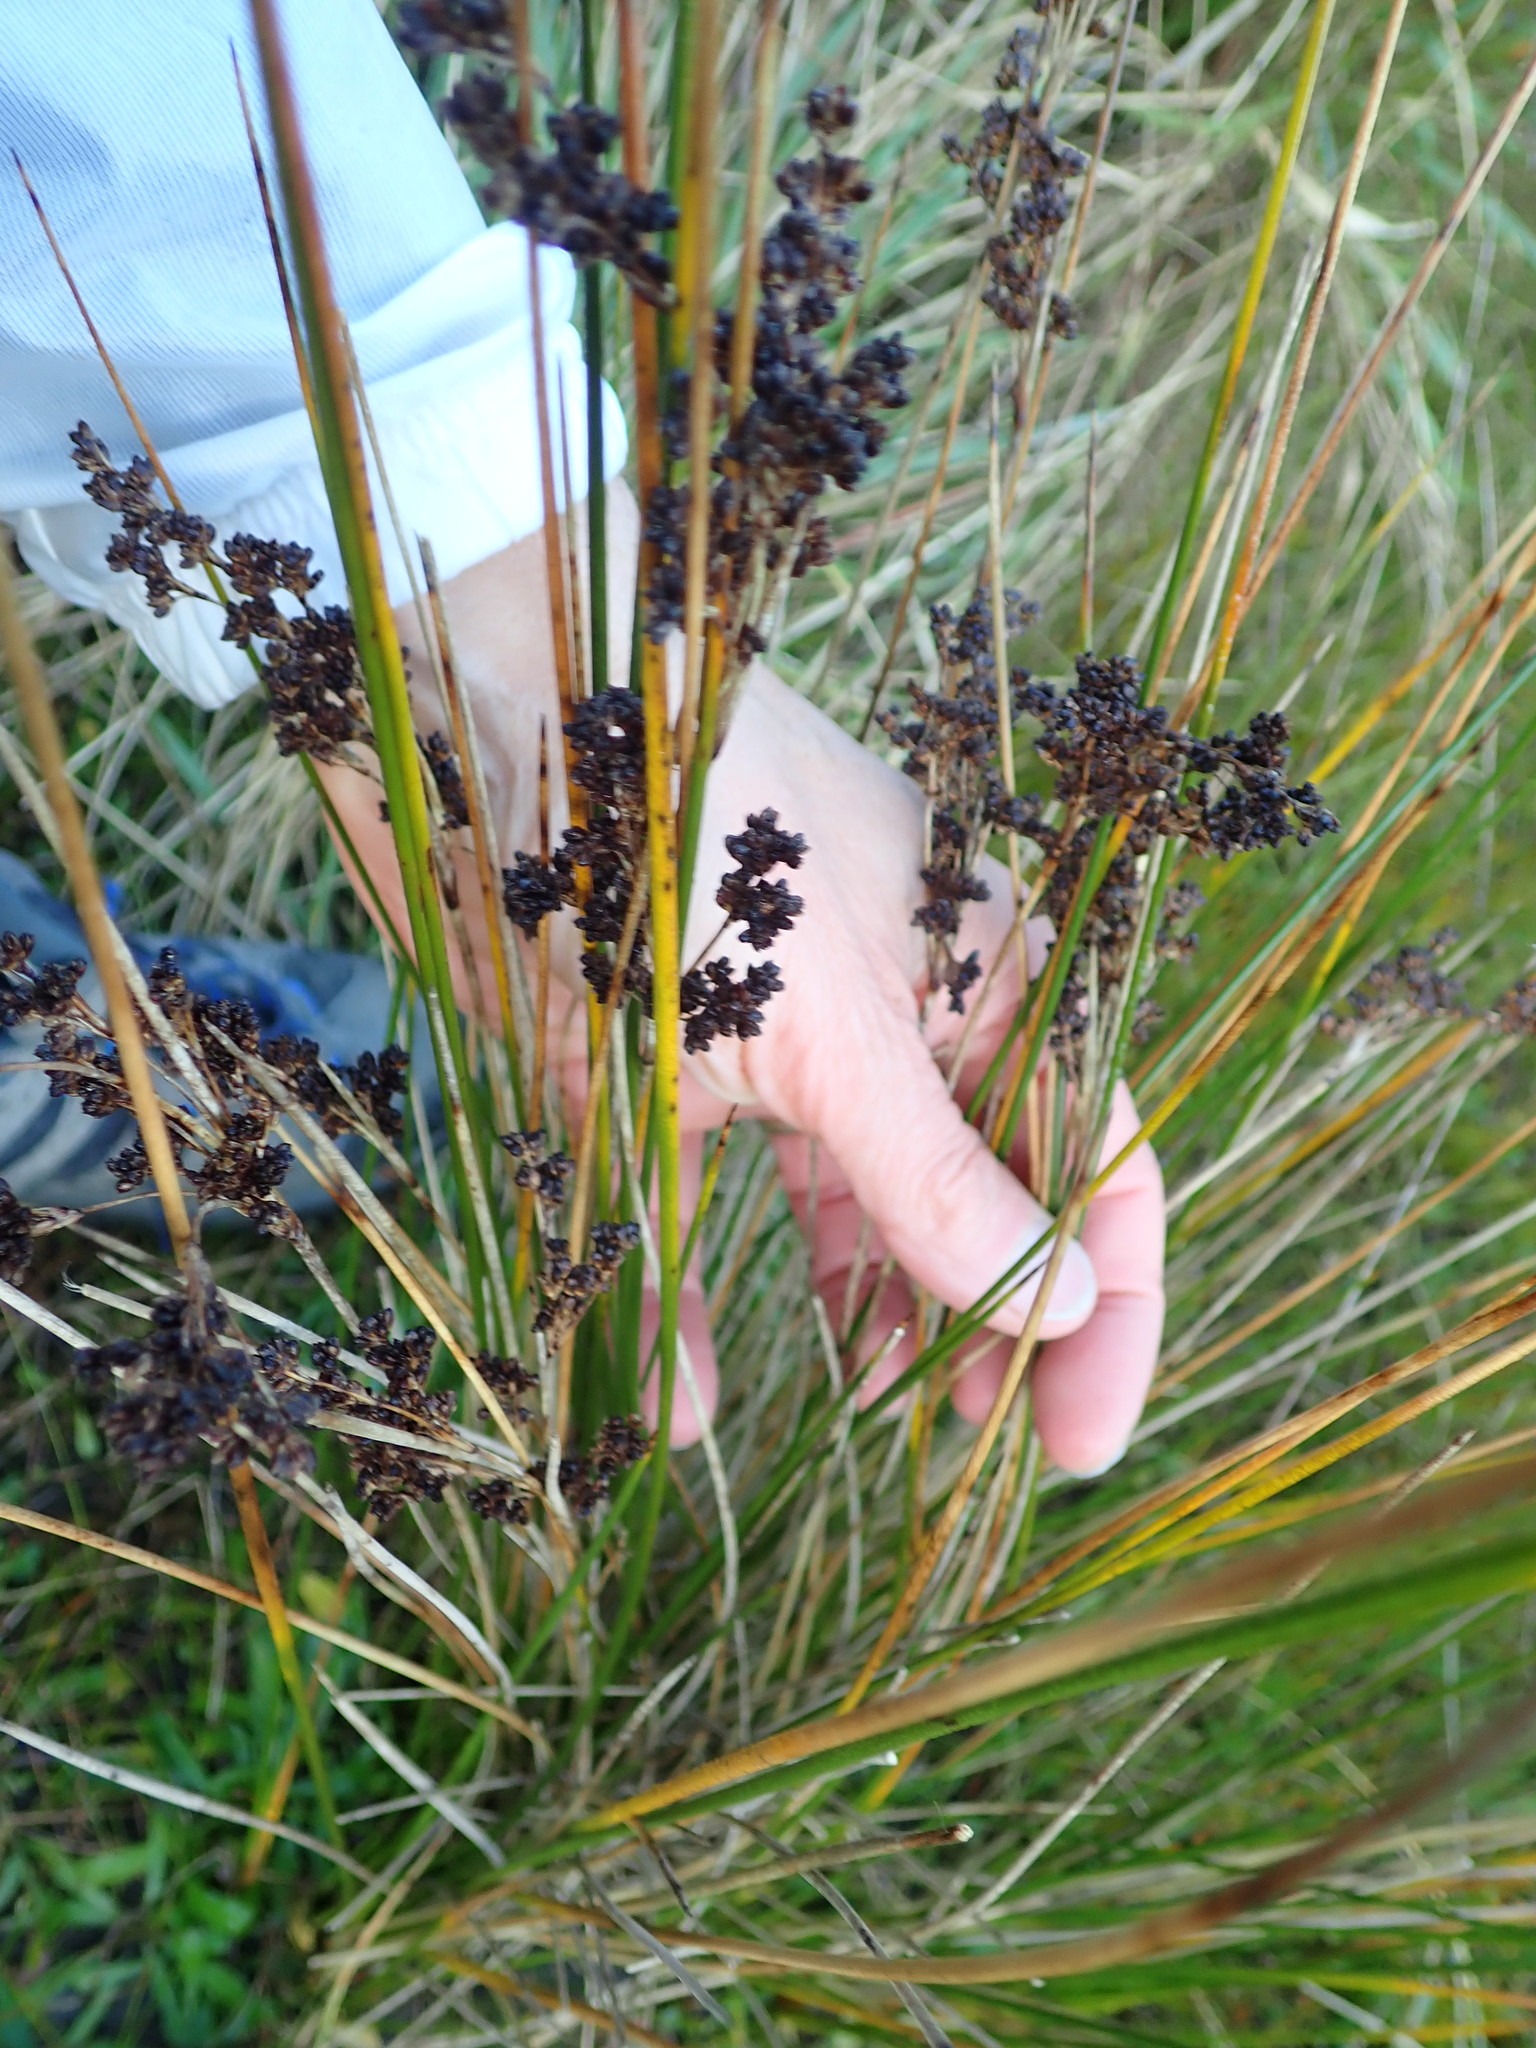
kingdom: Plantae
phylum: Tracheophyta
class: Liliopsida
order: Poales
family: Juncaceae
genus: Juncus
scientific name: Juncus kraussii
